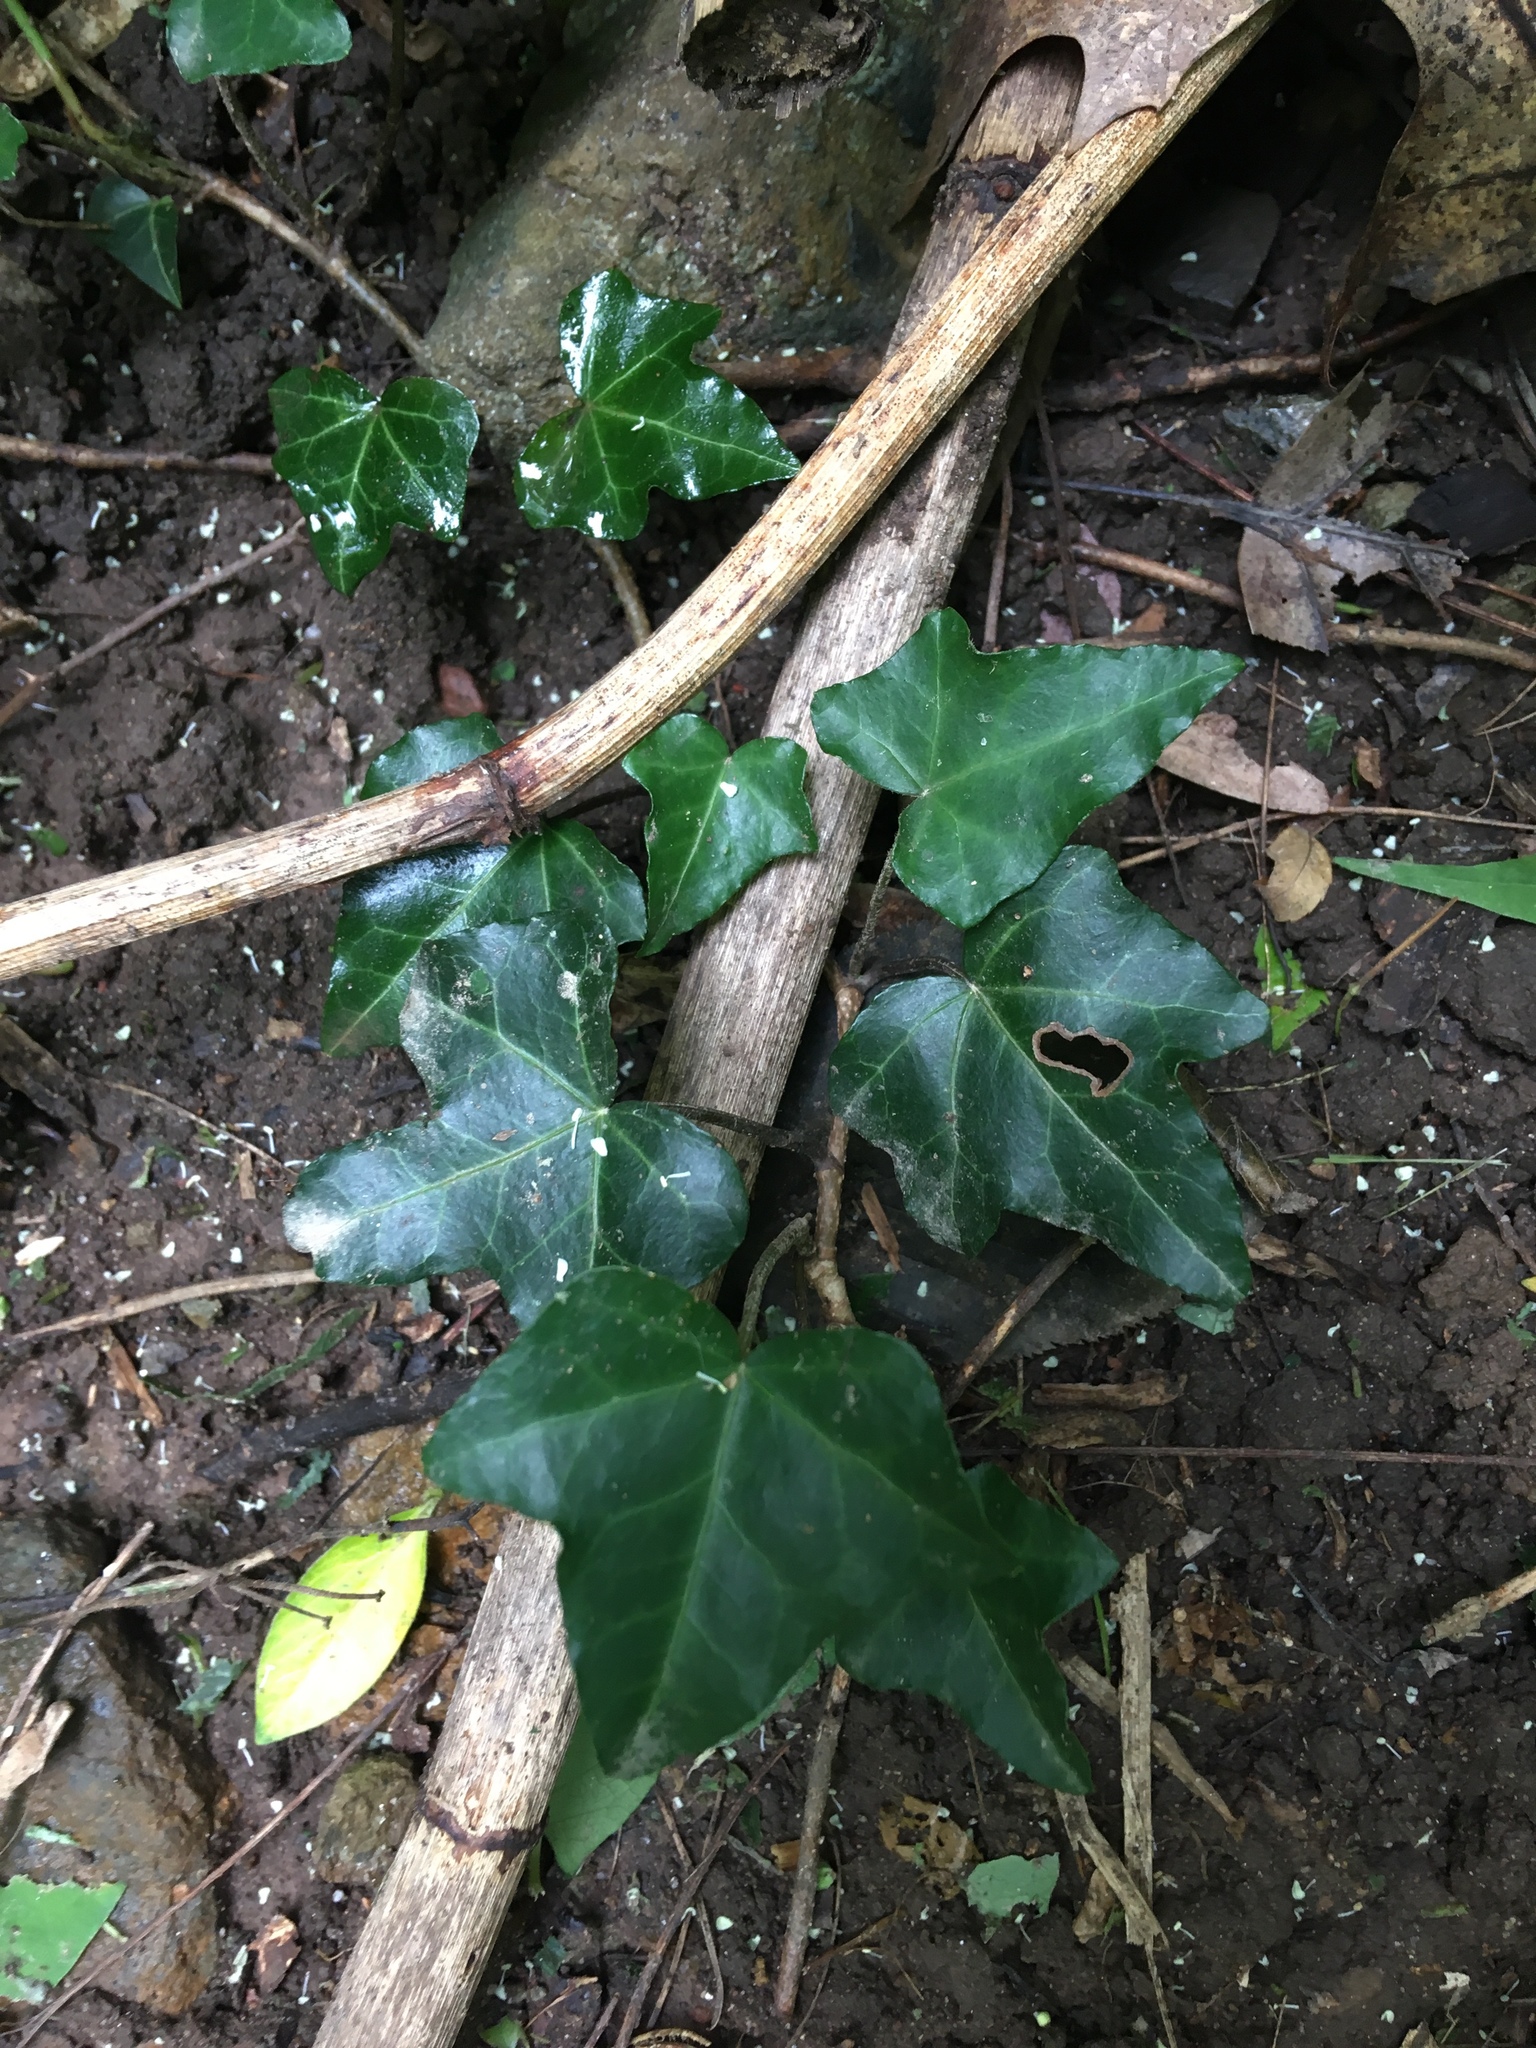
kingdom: Plantae
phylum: Tracheophyta
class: Magnoliopsida
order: Apiales
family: Araliaceae
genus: Hedera
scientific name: Hedera helix
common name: Ivy
